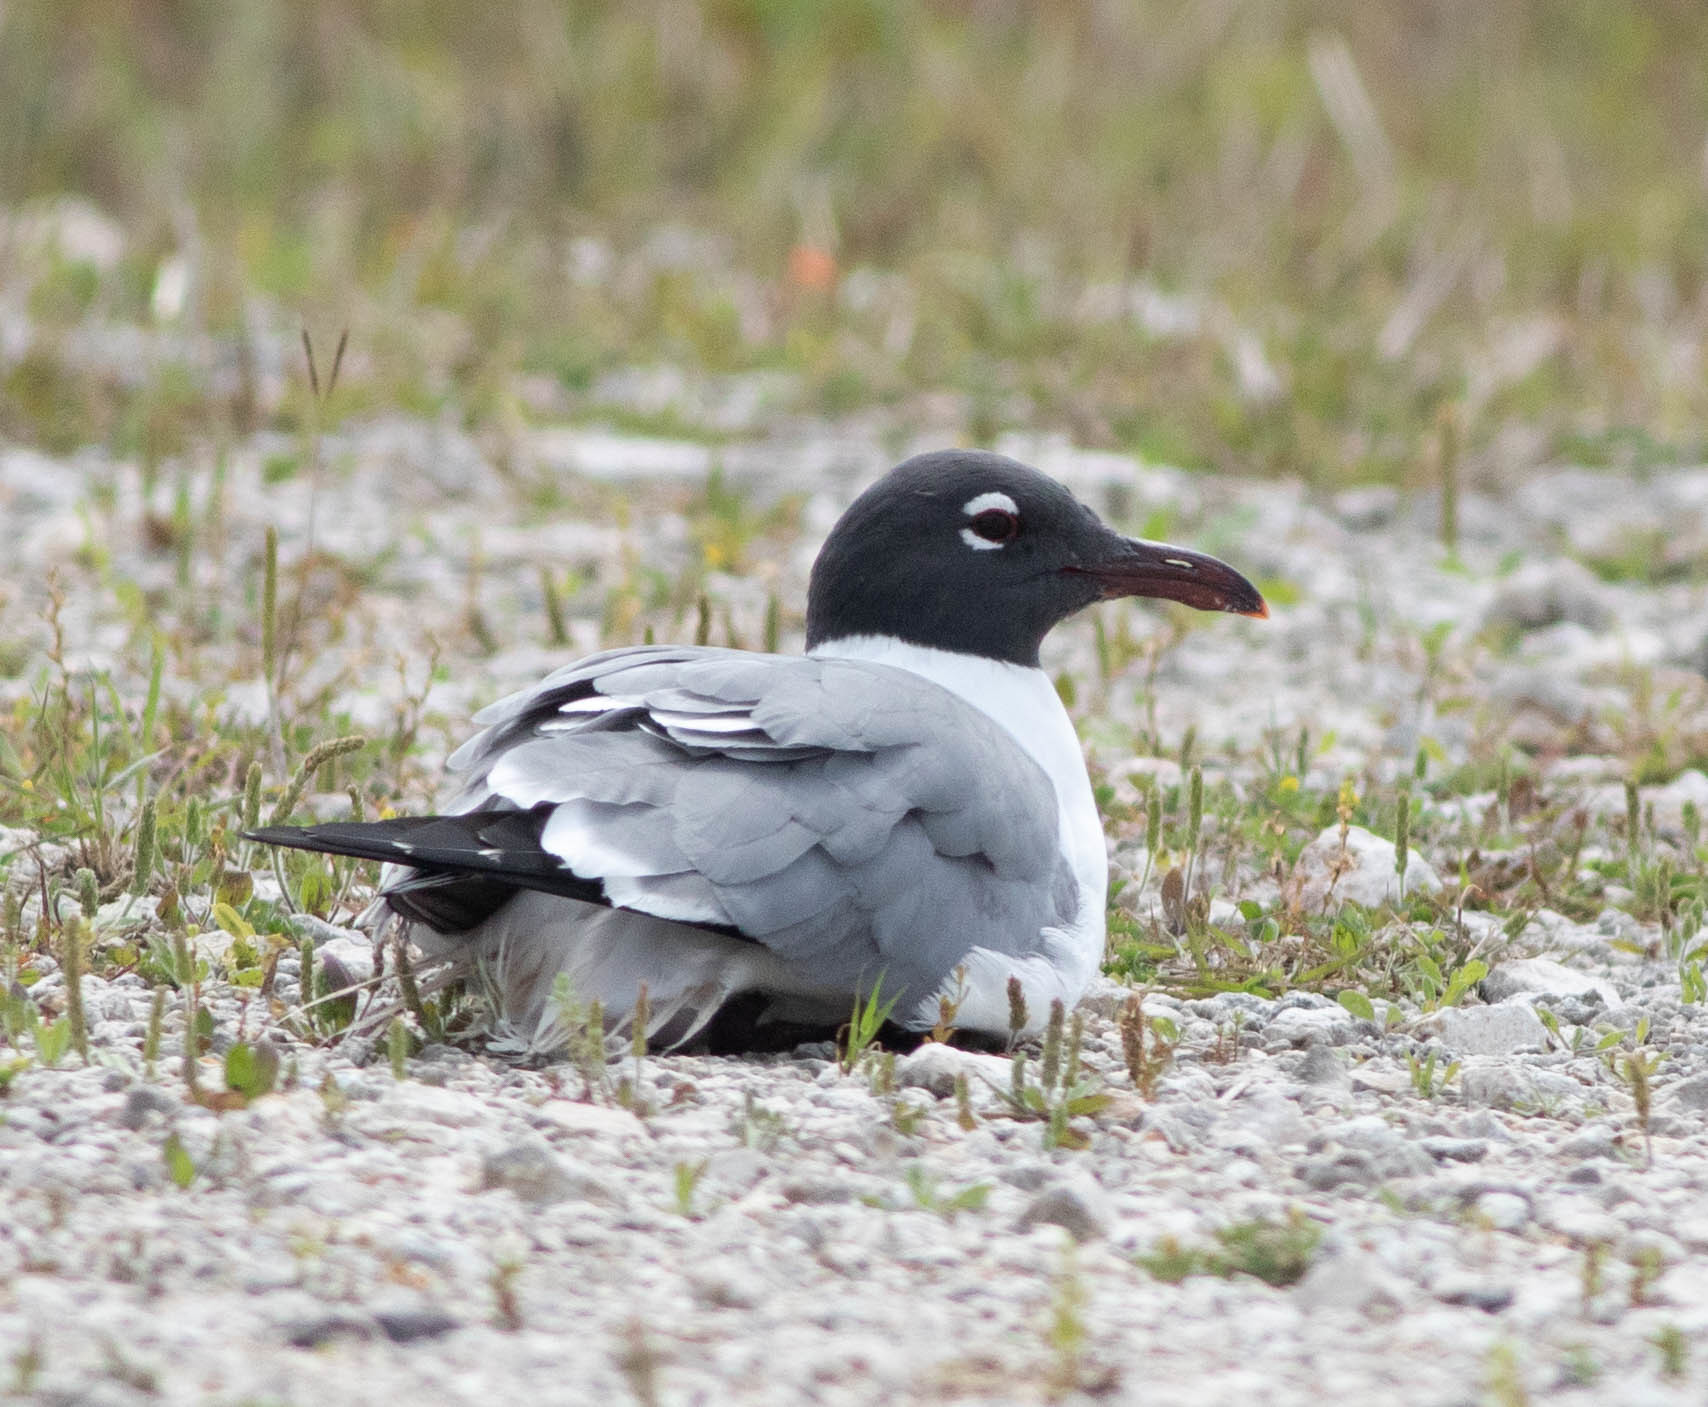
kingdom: Animalia
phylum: Chordata
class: Aves
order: Charadriiformes
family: Laridae
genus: Leucophaeus
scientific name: Leucophaeus atricilla
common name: Laughing gull
